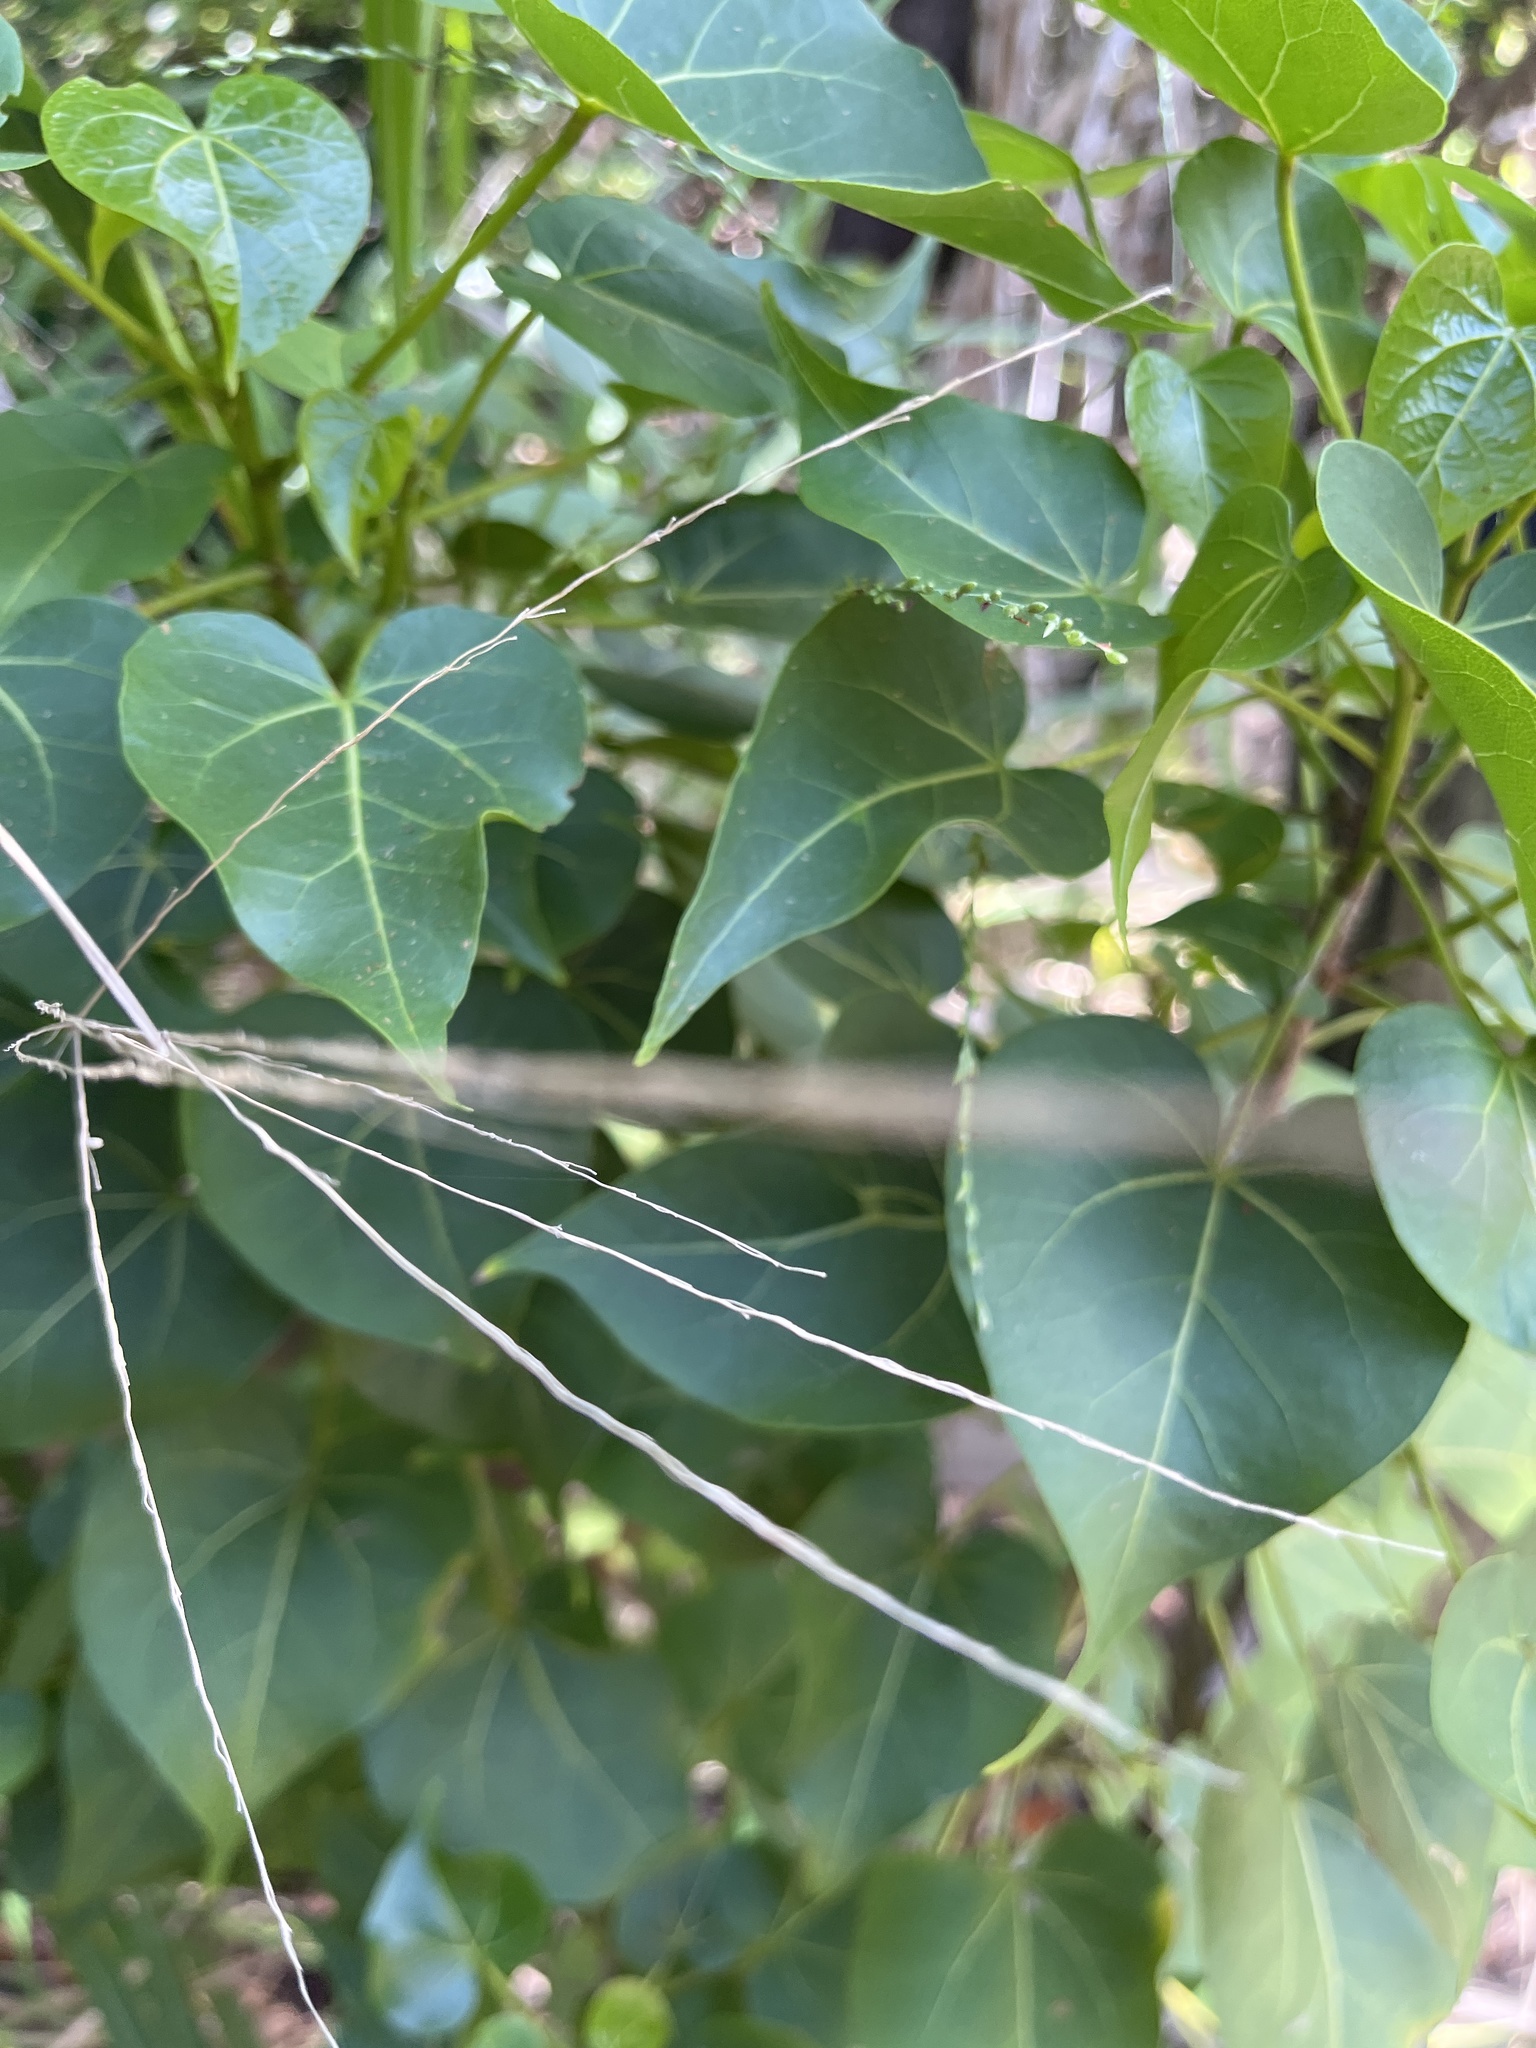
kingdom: Plantae
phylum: Tracheophyta
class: Magnoliopsida
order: Malvales
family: Malvaceae
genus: Thespesia
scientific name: Thespesia populnea
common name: Seaside mahoe
